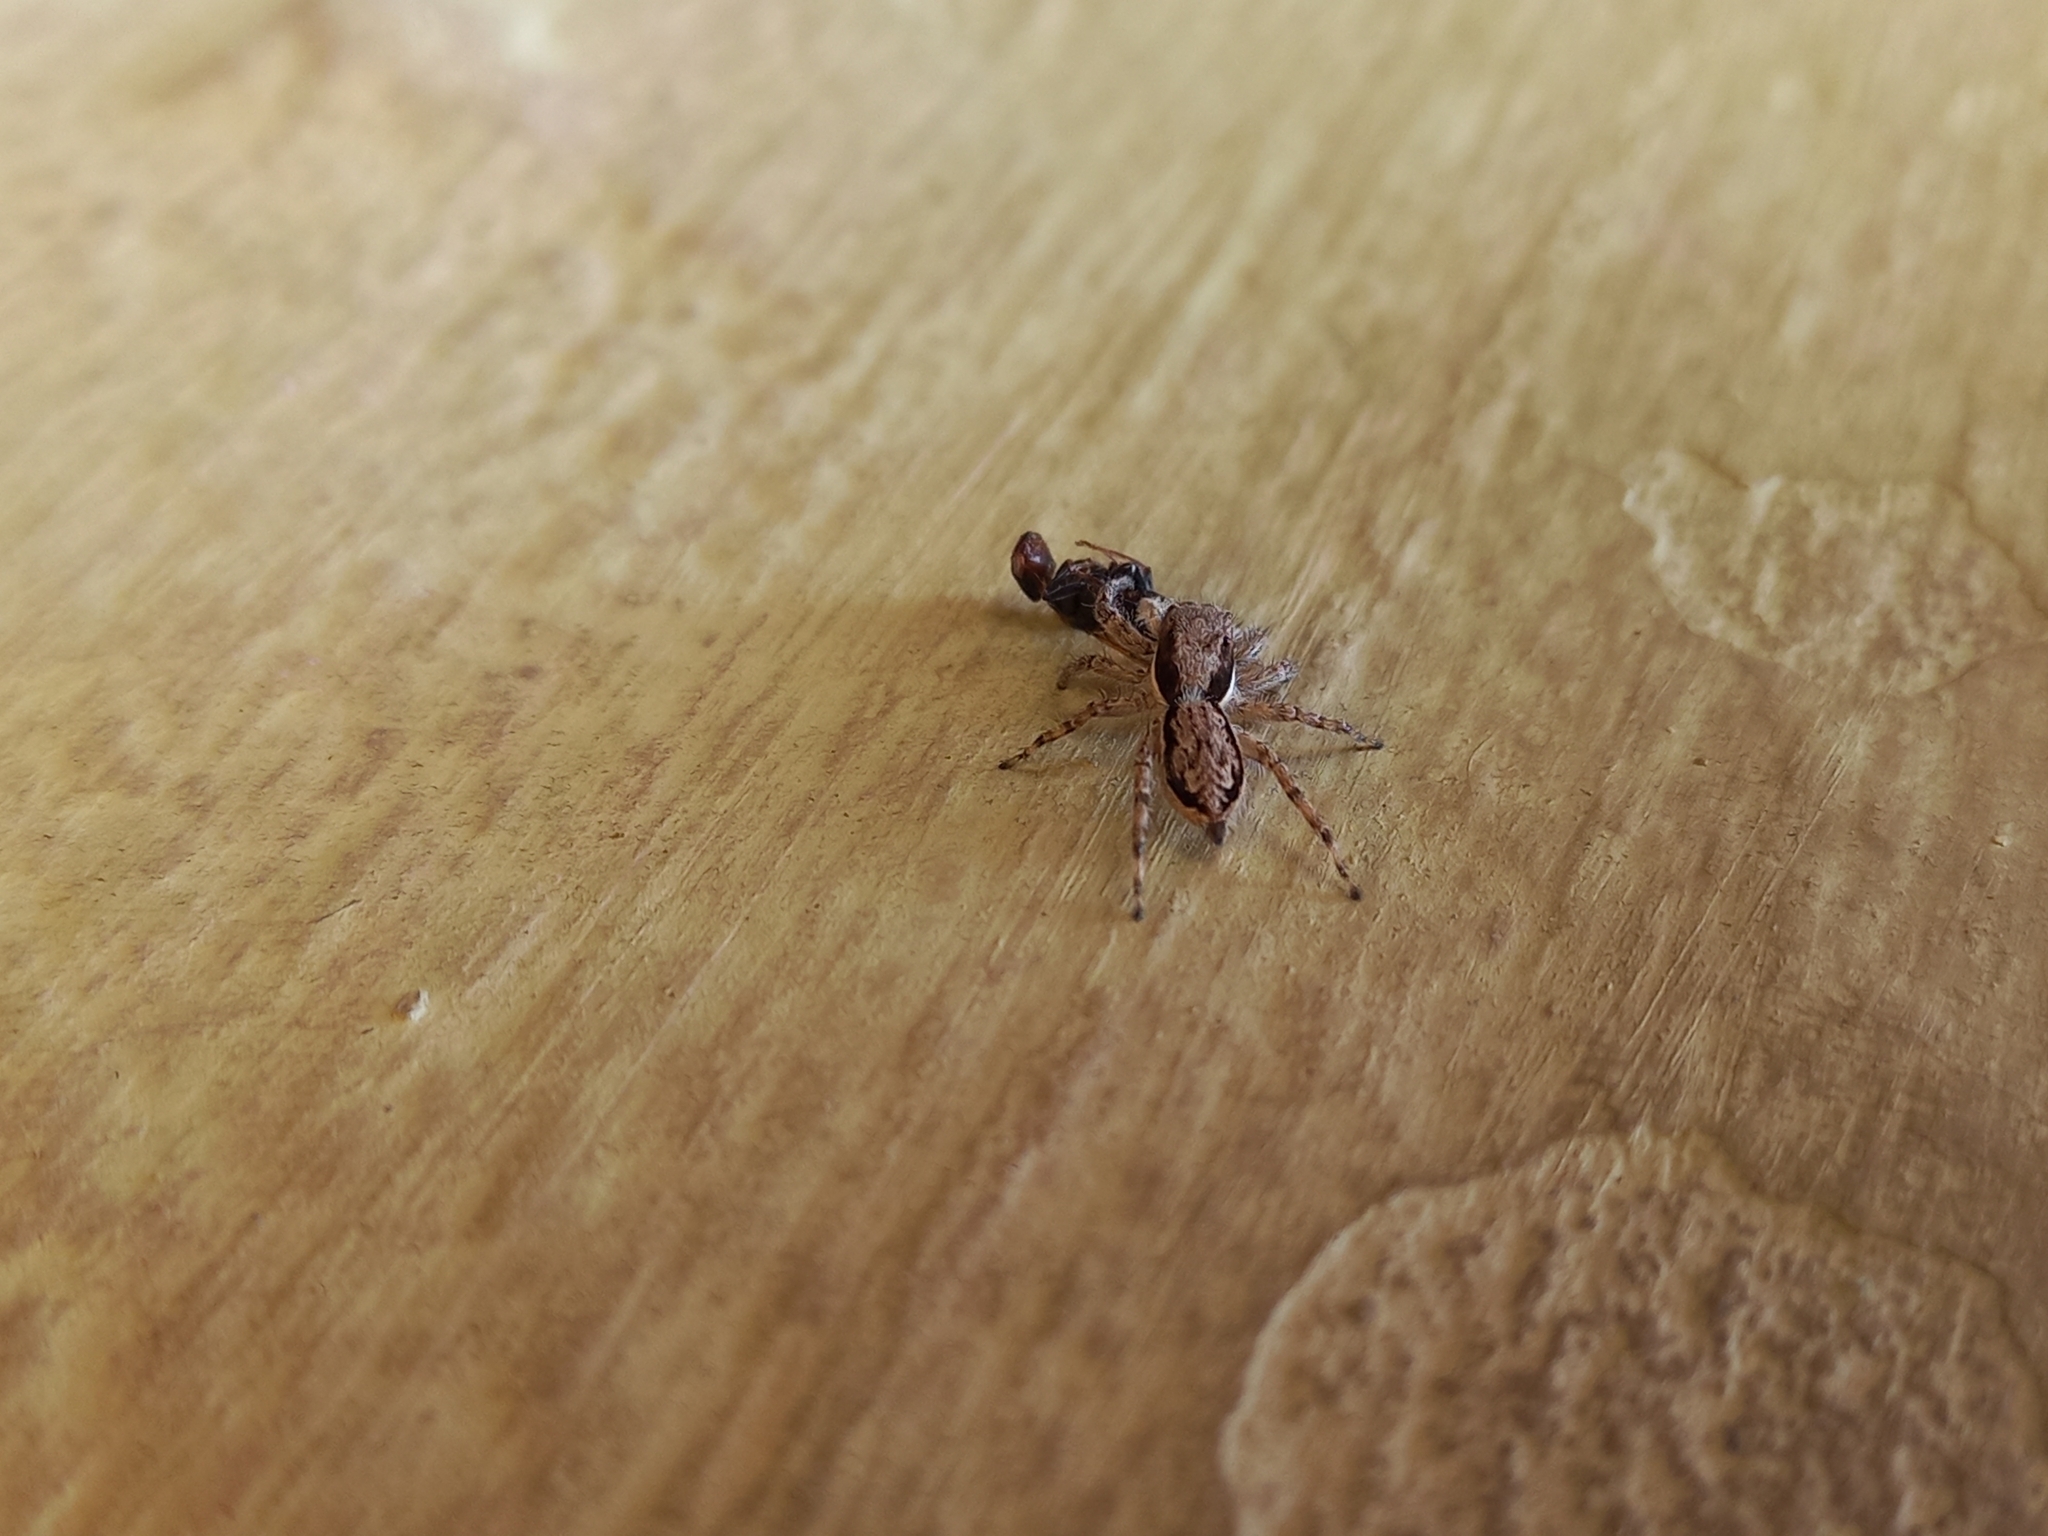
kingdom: Animalia
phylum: Arthropoda
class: Arachnida
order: Araneae
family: Salticidae
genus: Menemerus
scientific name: Menemerus bivittatus
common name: Gray wall jumper
